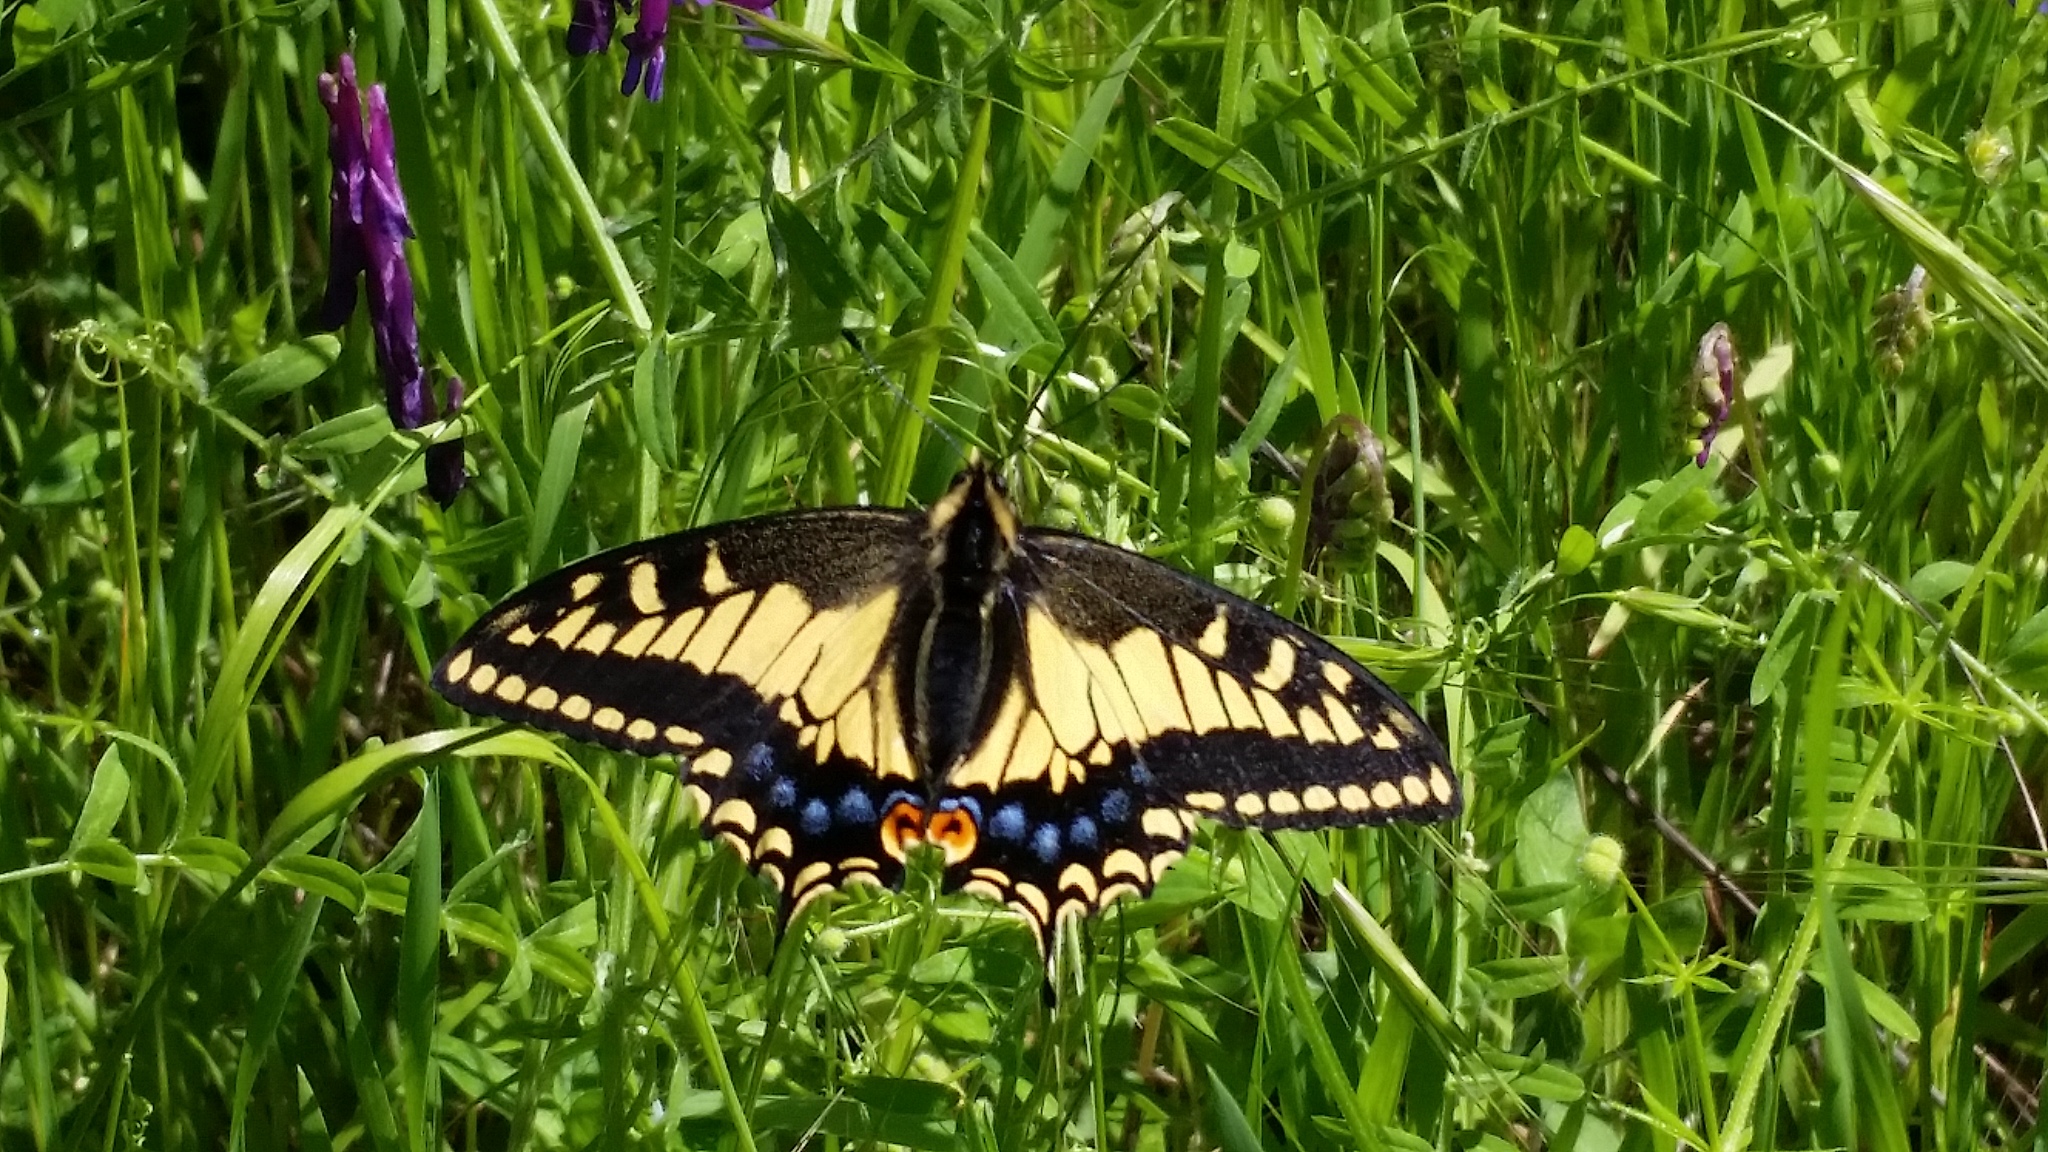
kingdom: Animalia
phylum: Arthropoda
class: Insecta
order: Lepidoptera
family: Papilionidae
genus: Papilio
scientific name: Papilio zelicaon
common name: Anise swallowtail
